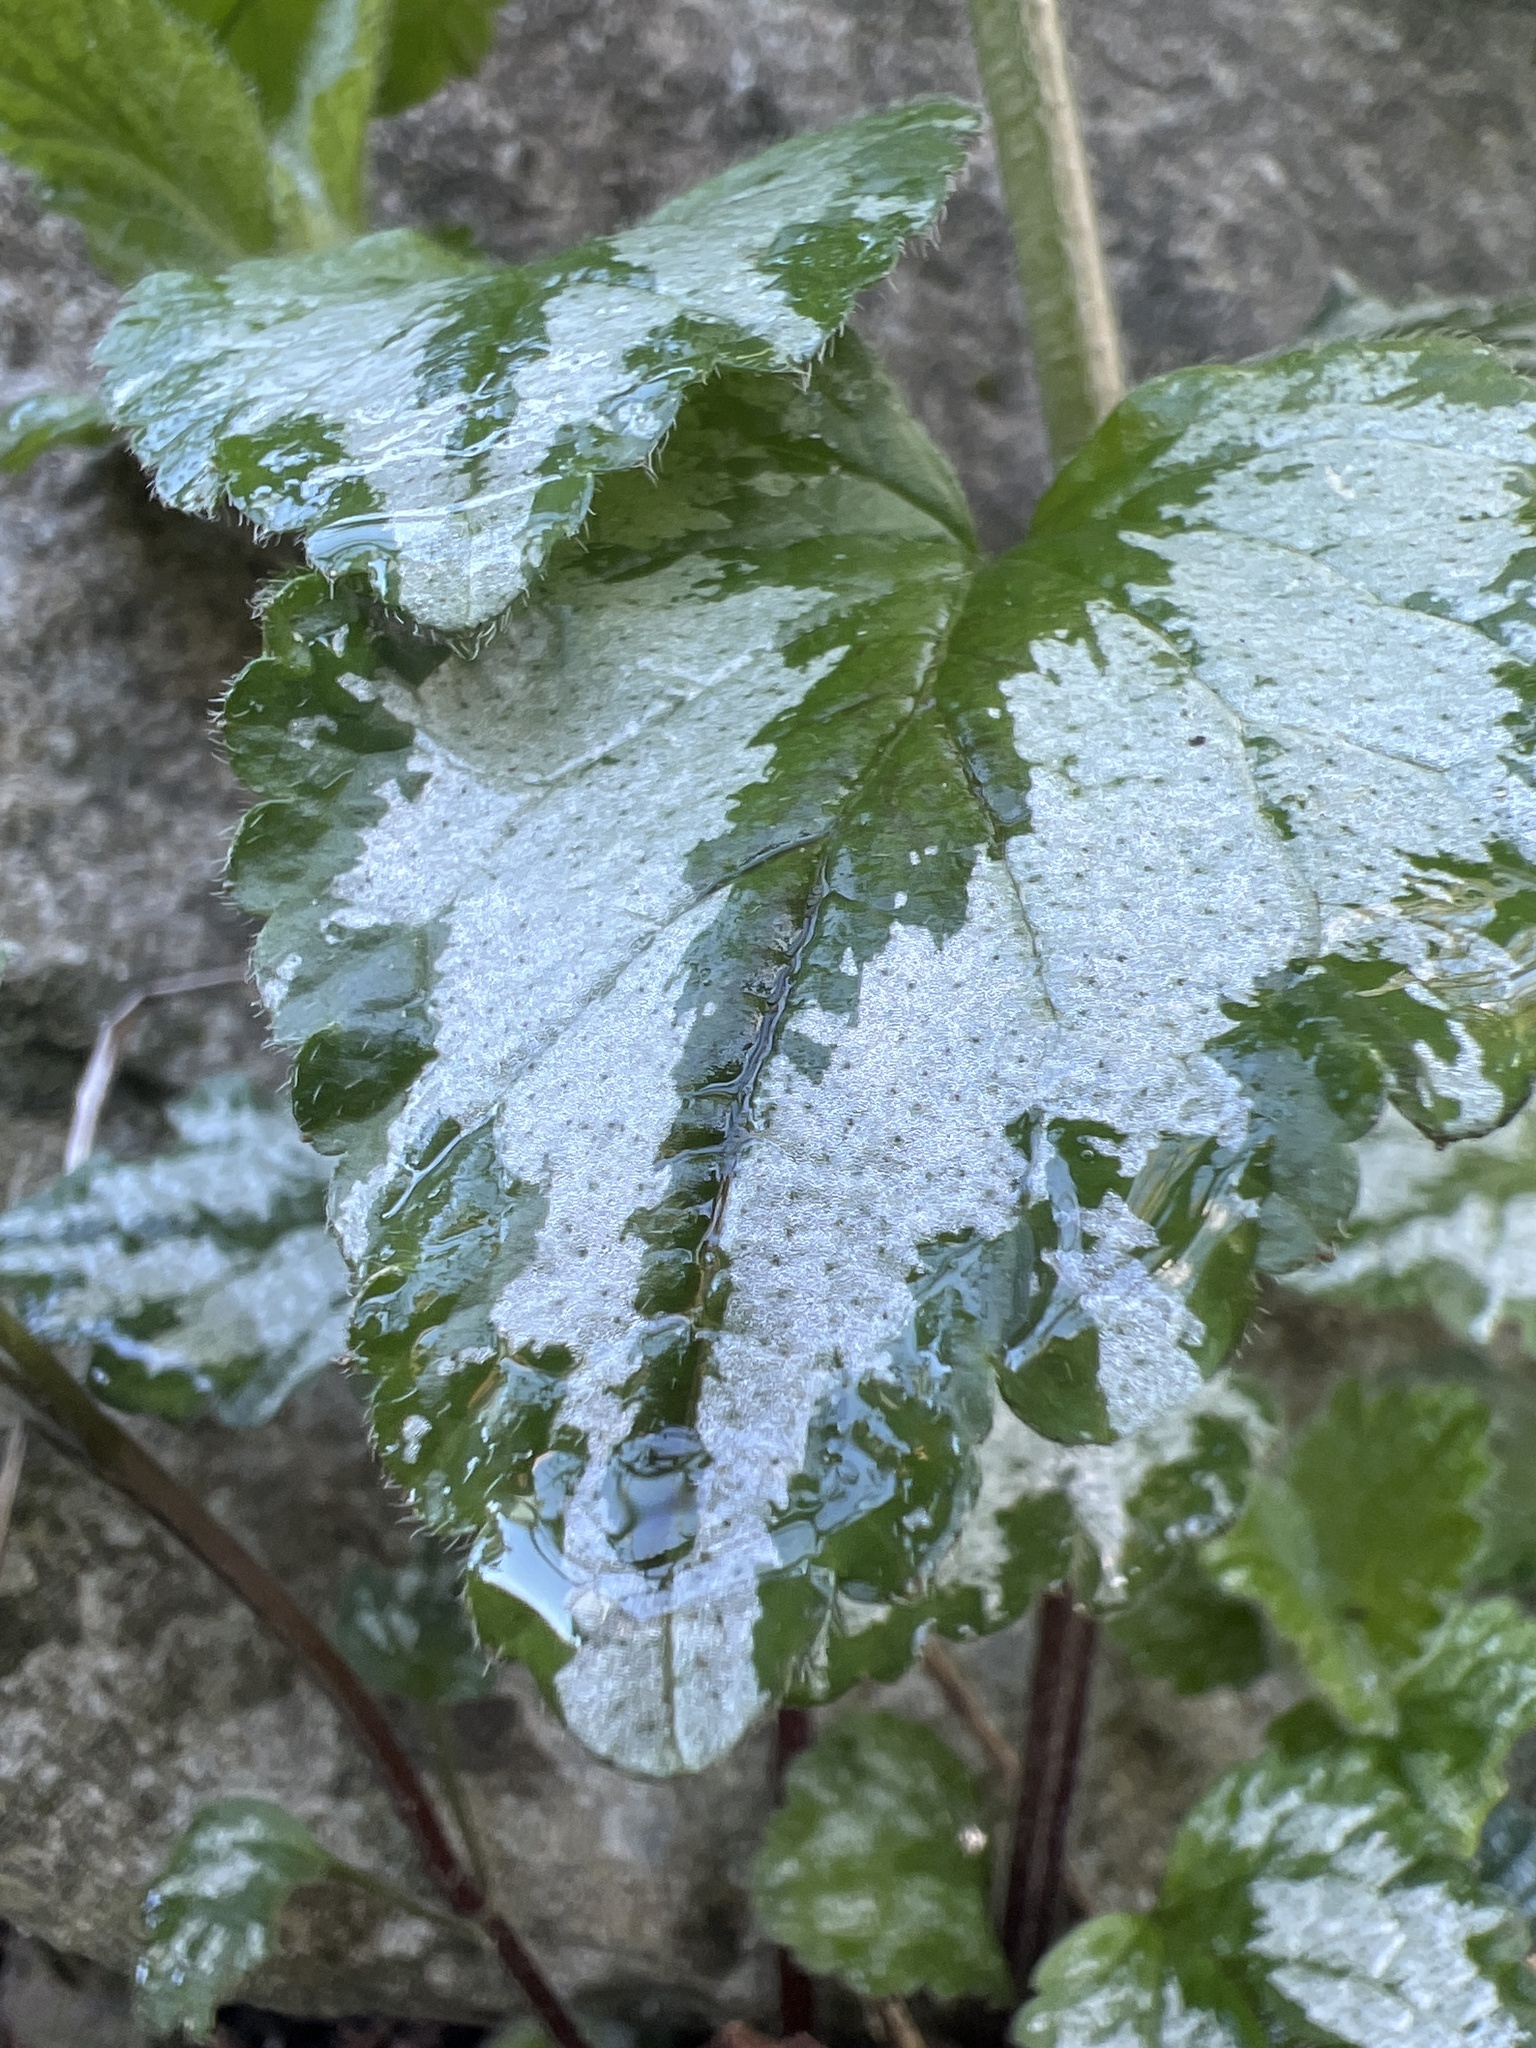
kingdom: Plantae
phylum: Tracheophyta
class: Magnoliopsida
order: Lamiales
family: Lamiaceae
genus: Lamium
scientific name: Lamium galeobdolon
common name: Yellow archangel
